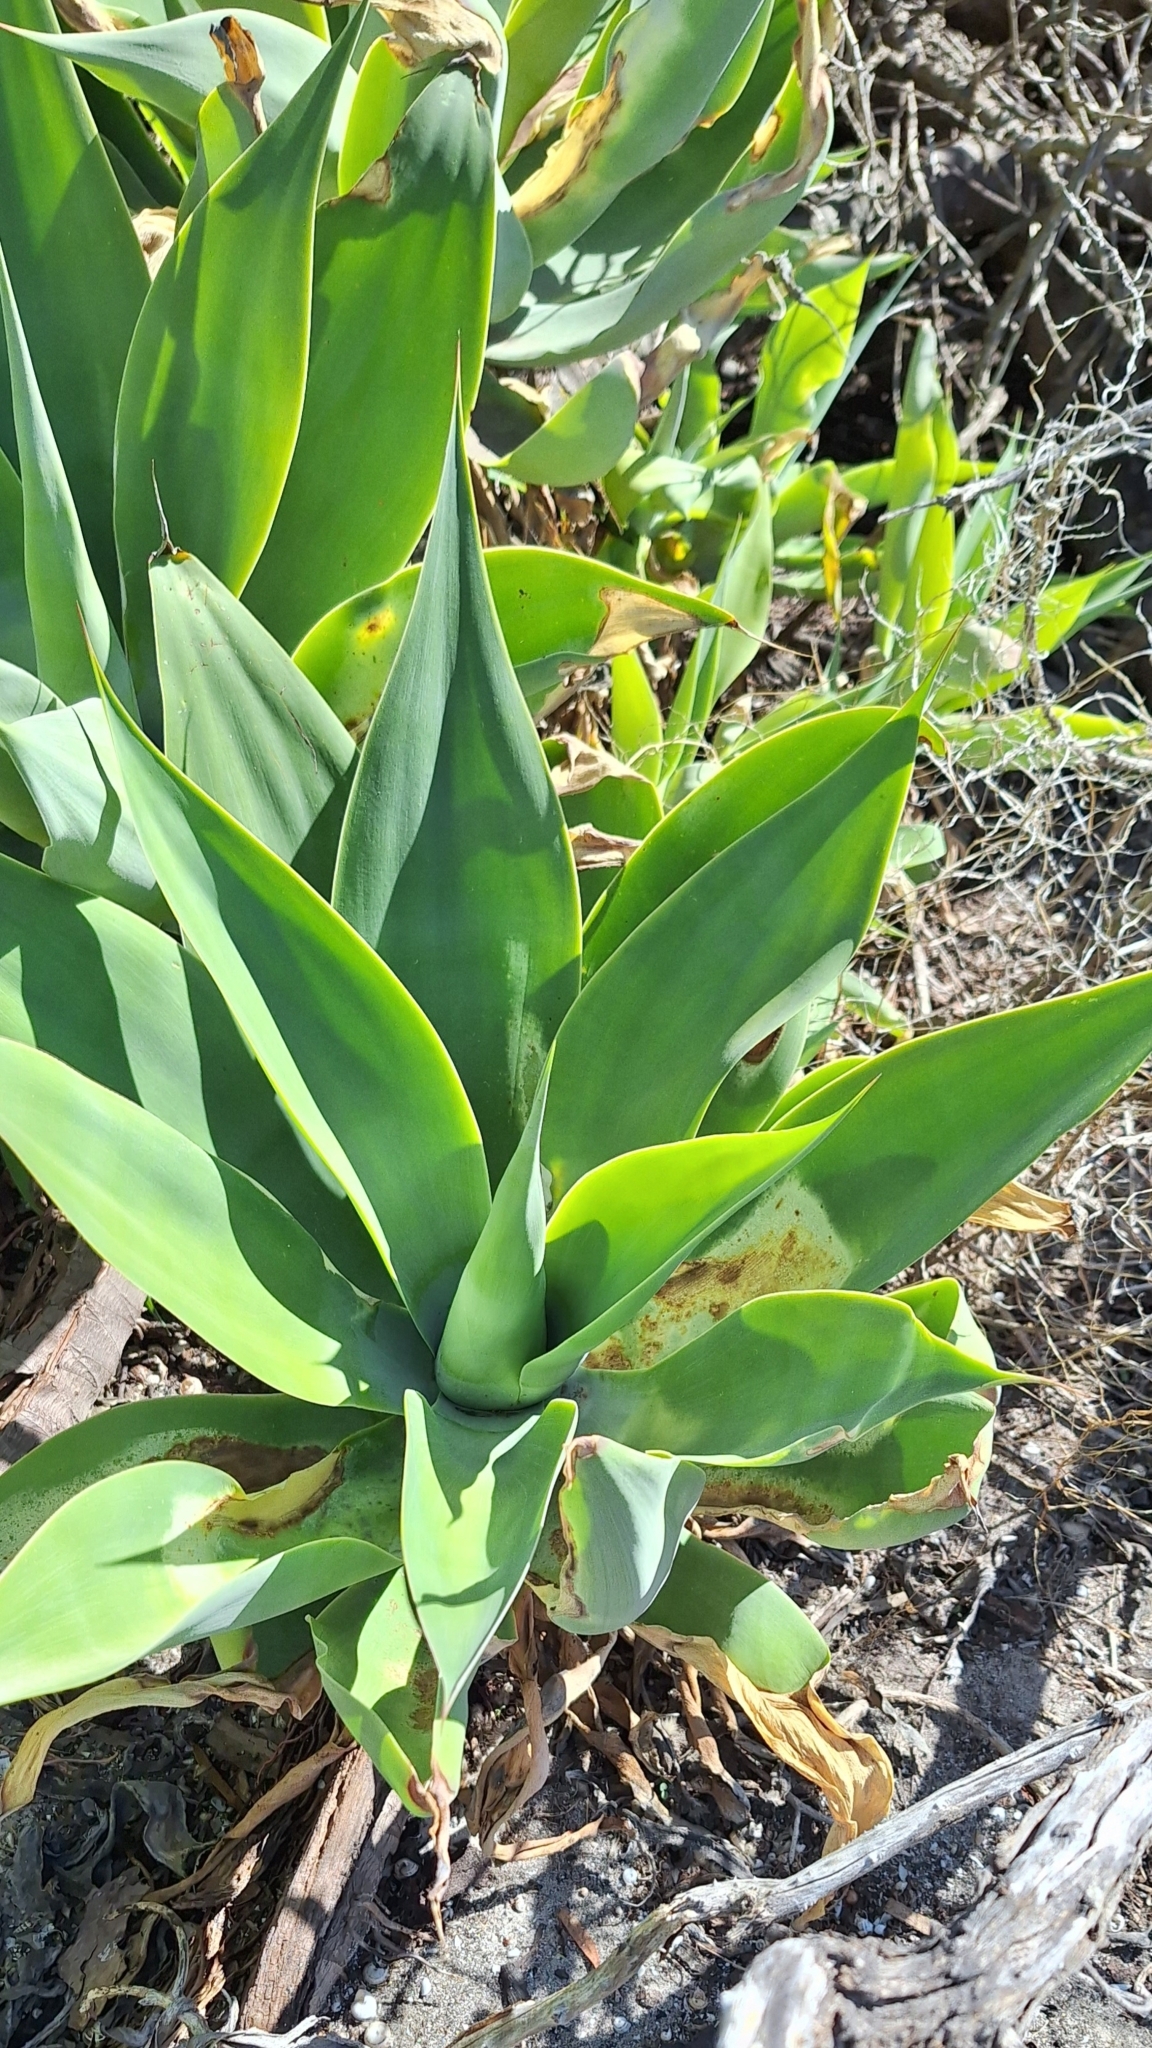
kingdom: Plantae
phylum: Tracheophyta
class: Liliopsida
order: Asparagales
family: Asparagaceae
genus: Agave
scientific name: Agave attenuata
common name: Fox tail agave
